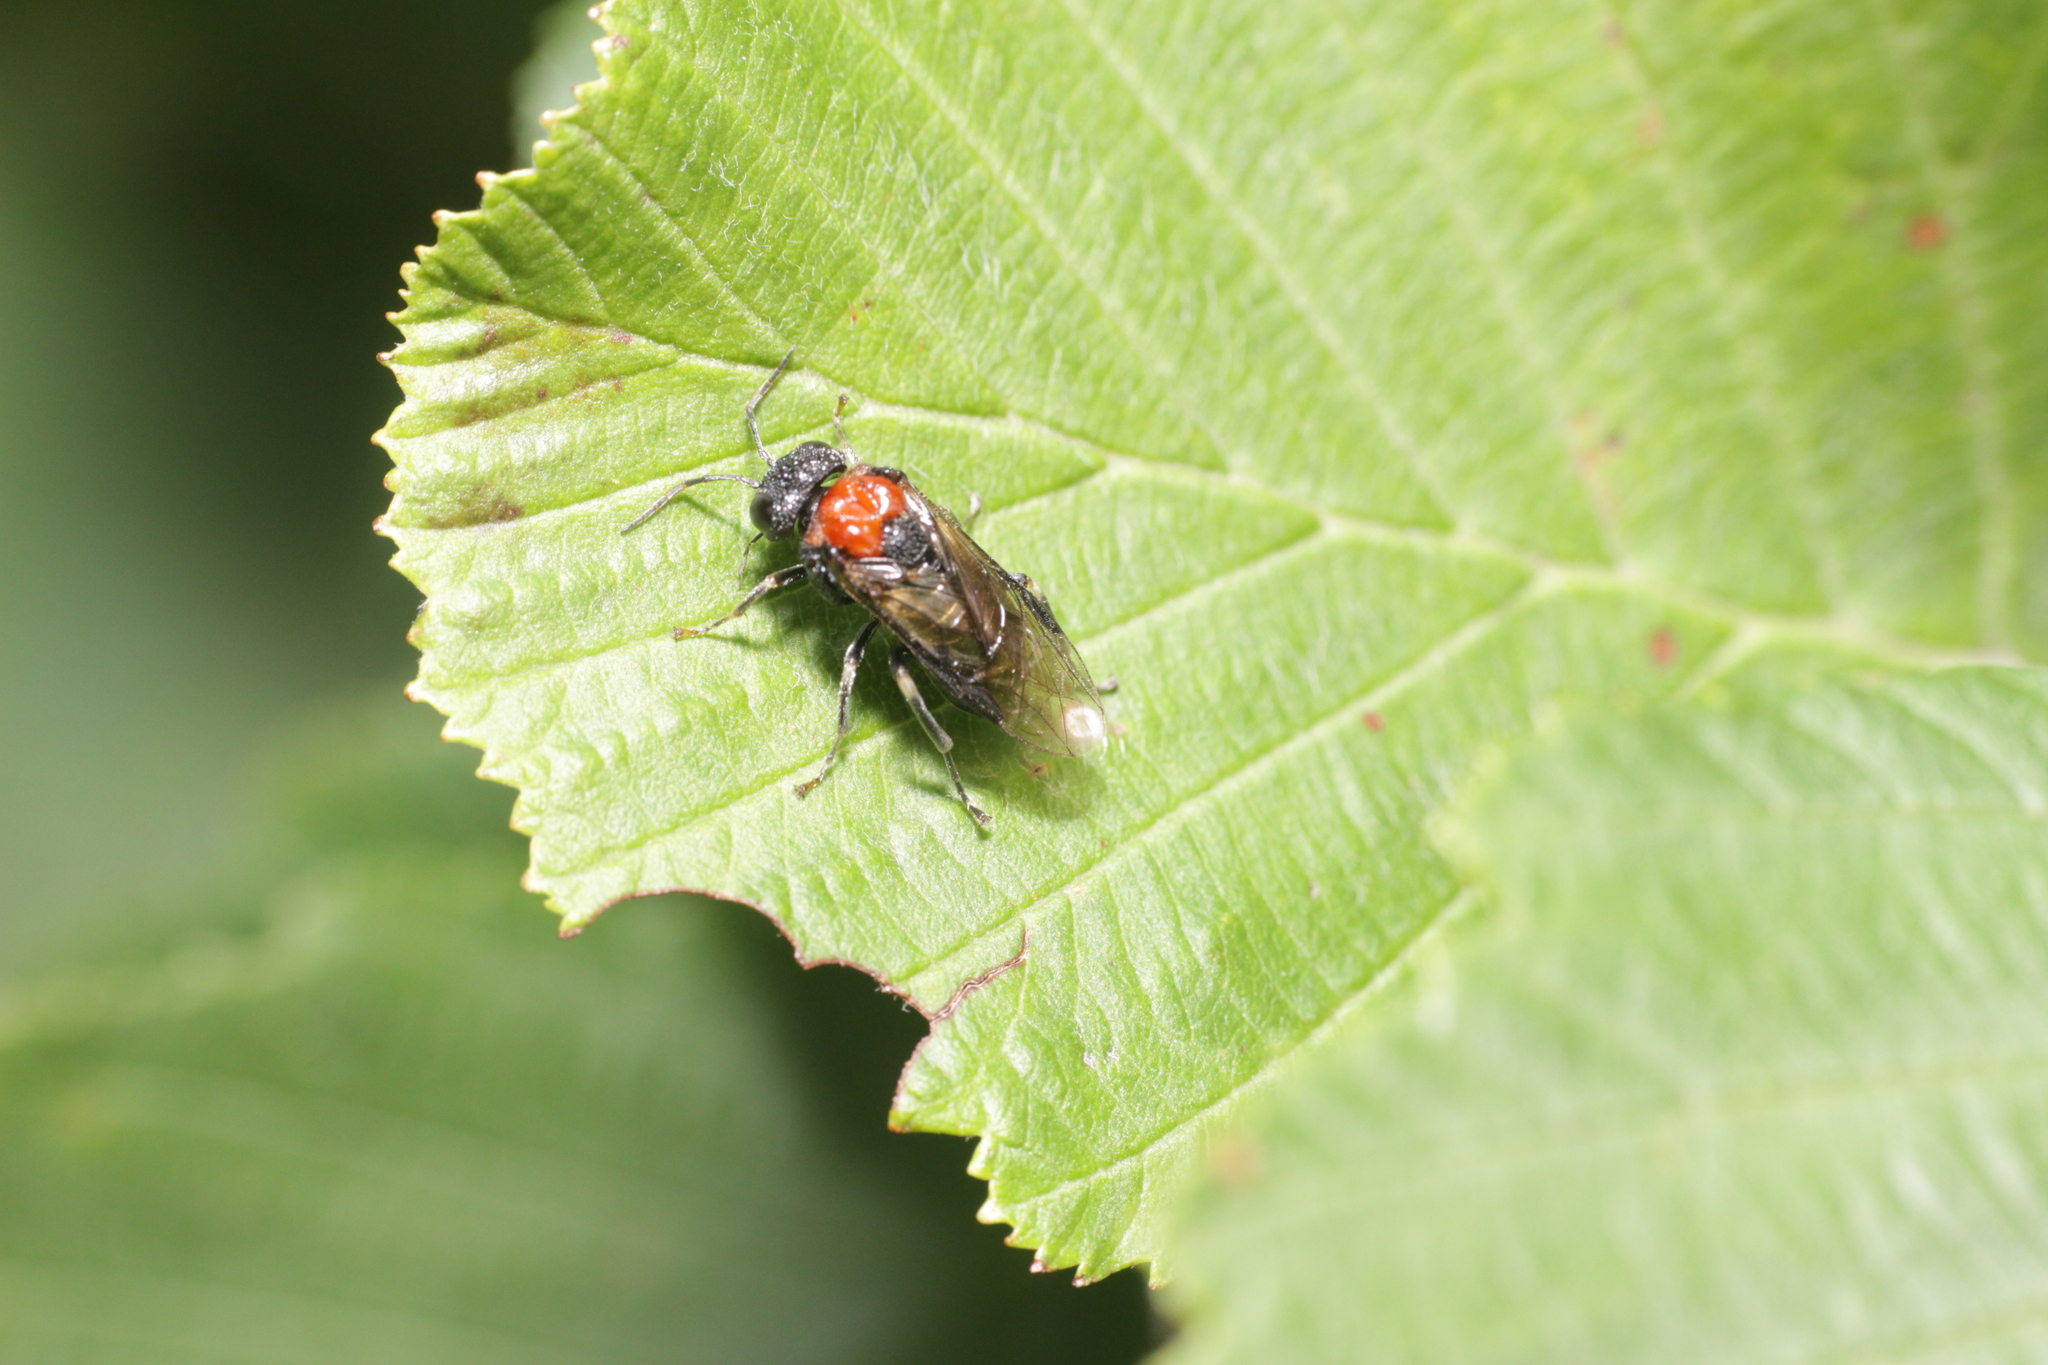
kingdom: Animalia
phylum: Arthropoda
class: Insecta
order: Hymenoptera
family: Tenthredinidae
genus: Eriocampa
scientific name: Eriocampa ovata
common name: Alder wooly sawfly
